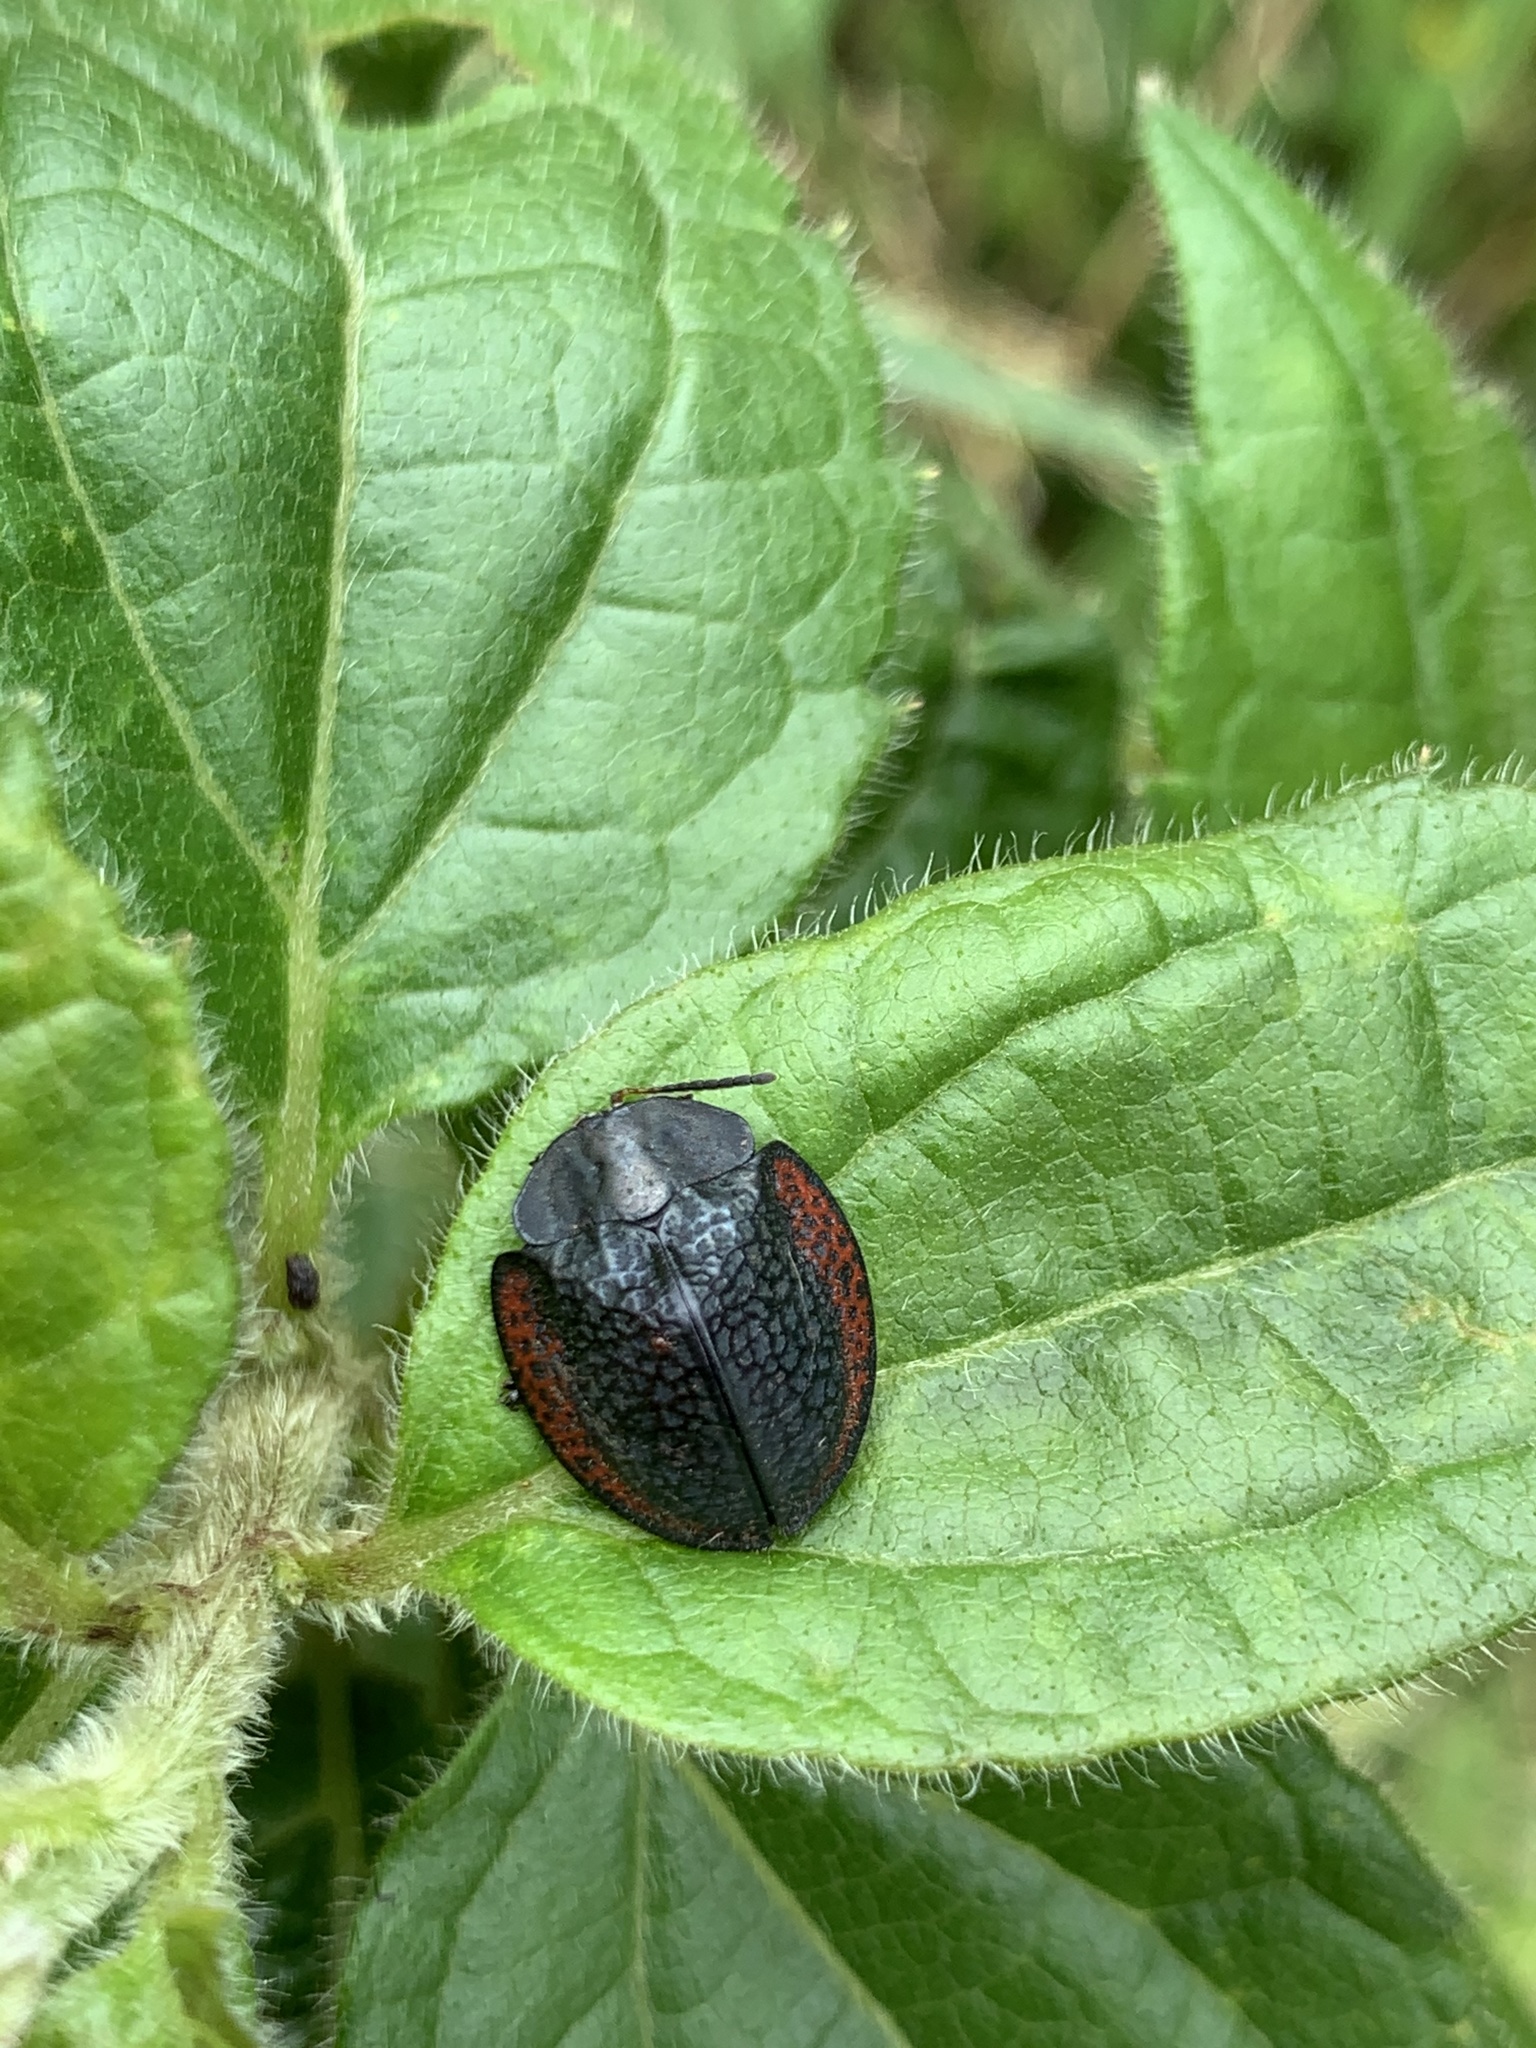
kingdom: Animalia
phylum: Arthropoda
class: Insecta
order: Coleoptera
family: Chrysomelidae
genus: Stolas
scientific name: Stolas coalita
